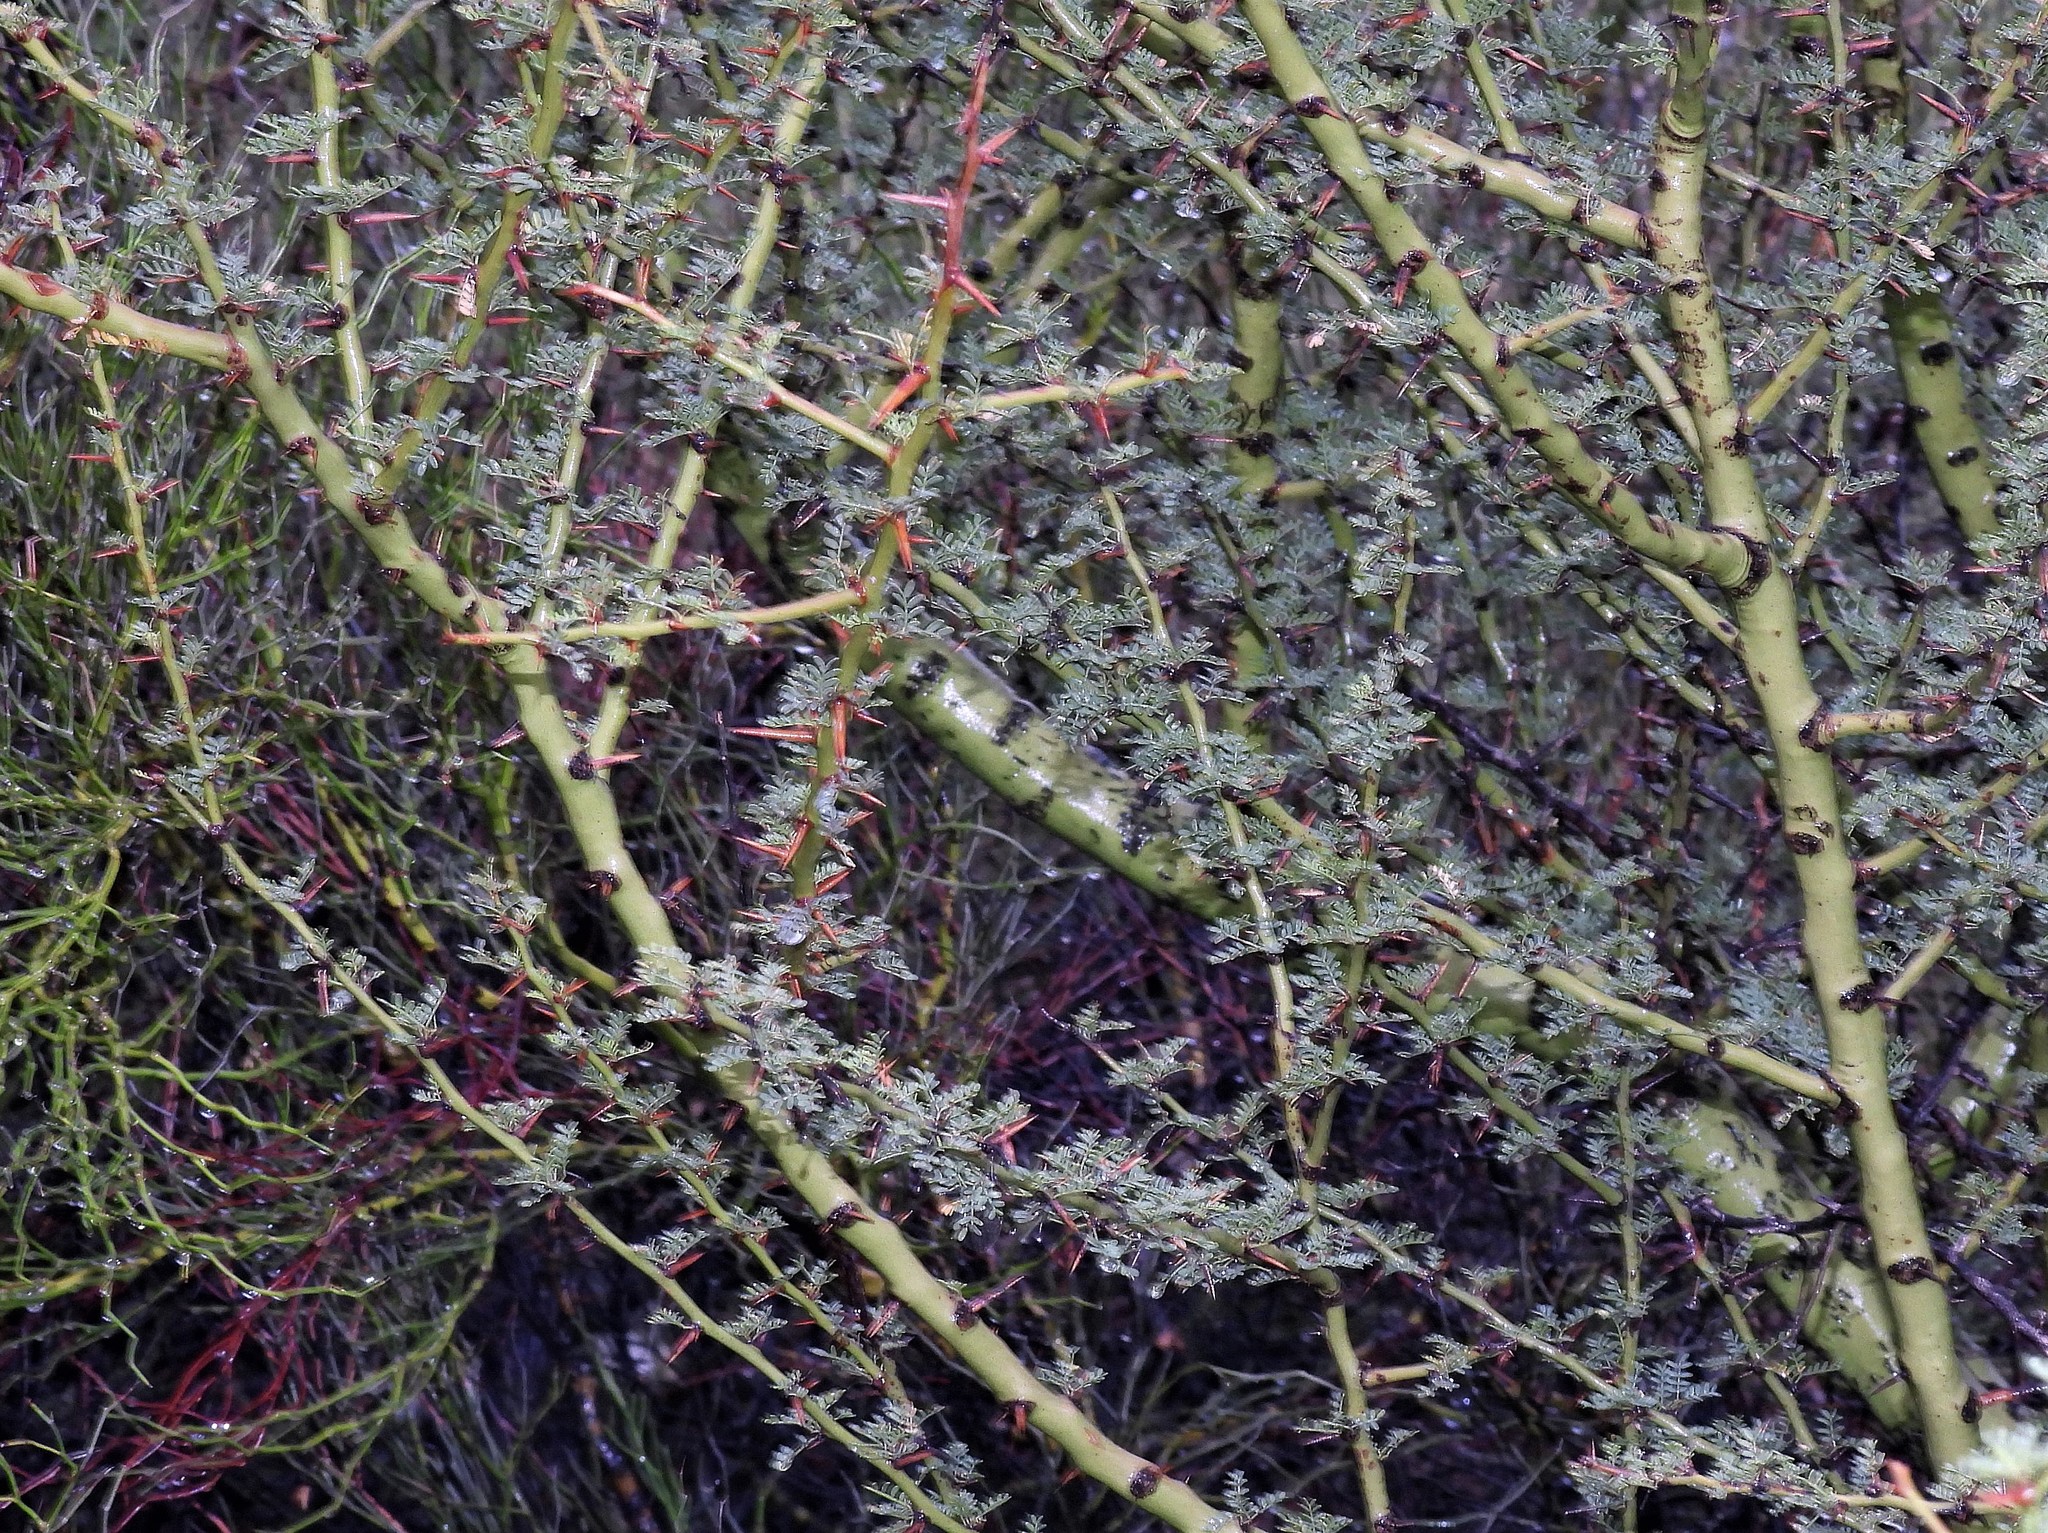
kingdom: Plantae
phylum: Tracheophyta
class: Magnoliopsida
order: Fabales
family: Fabaceae
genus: Parkinsonia
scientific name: Parkinsonia praecox
